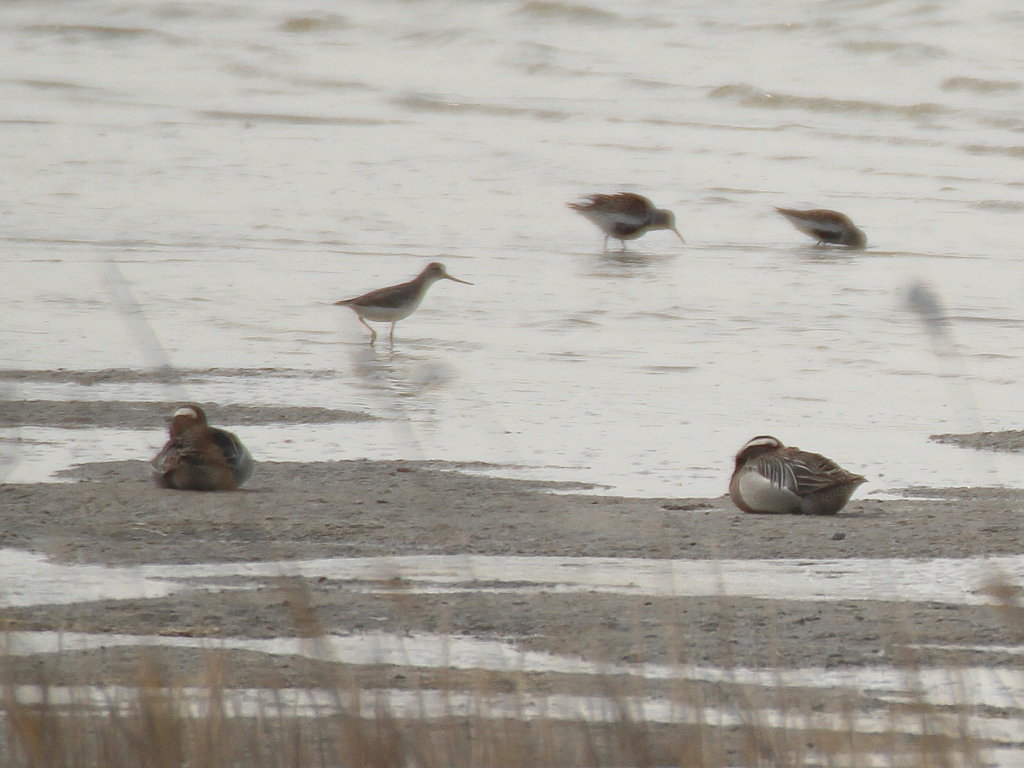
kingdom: Animalia
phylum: Chordata
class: Aves
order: Anseriformes
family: Anatidae
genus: Spatula
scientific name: Spatula querquedula
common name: Garganey
